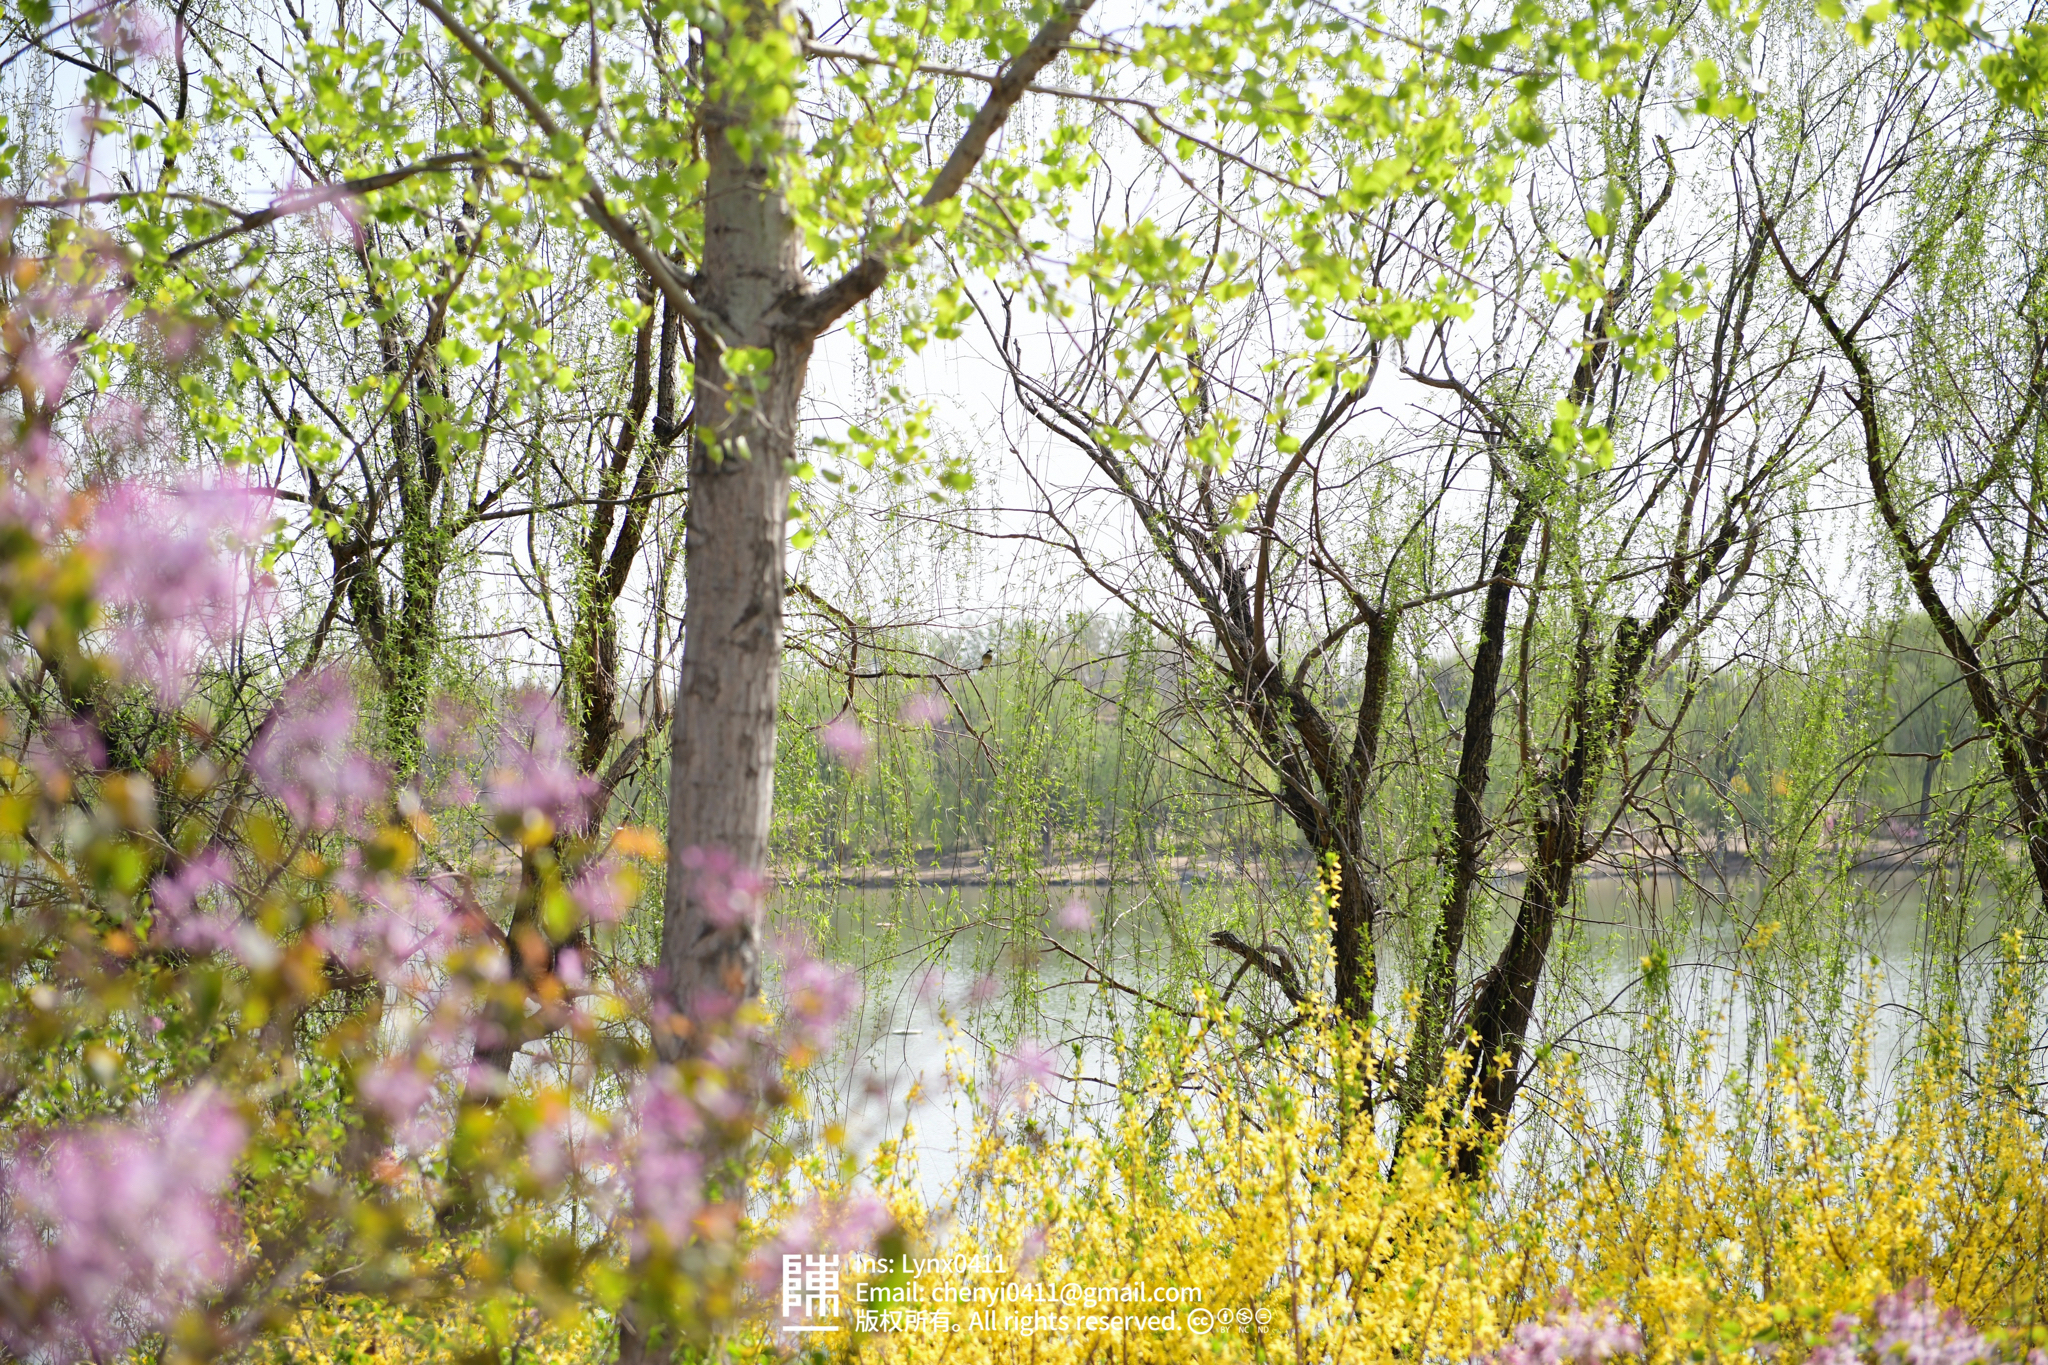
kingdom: Animalia
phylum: Chordata
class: Aves
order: Passeriformes
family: Pycnonotidae
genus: Pycnonotus
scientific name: Pycnonotus sinensis
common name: Light-vented bulbul
